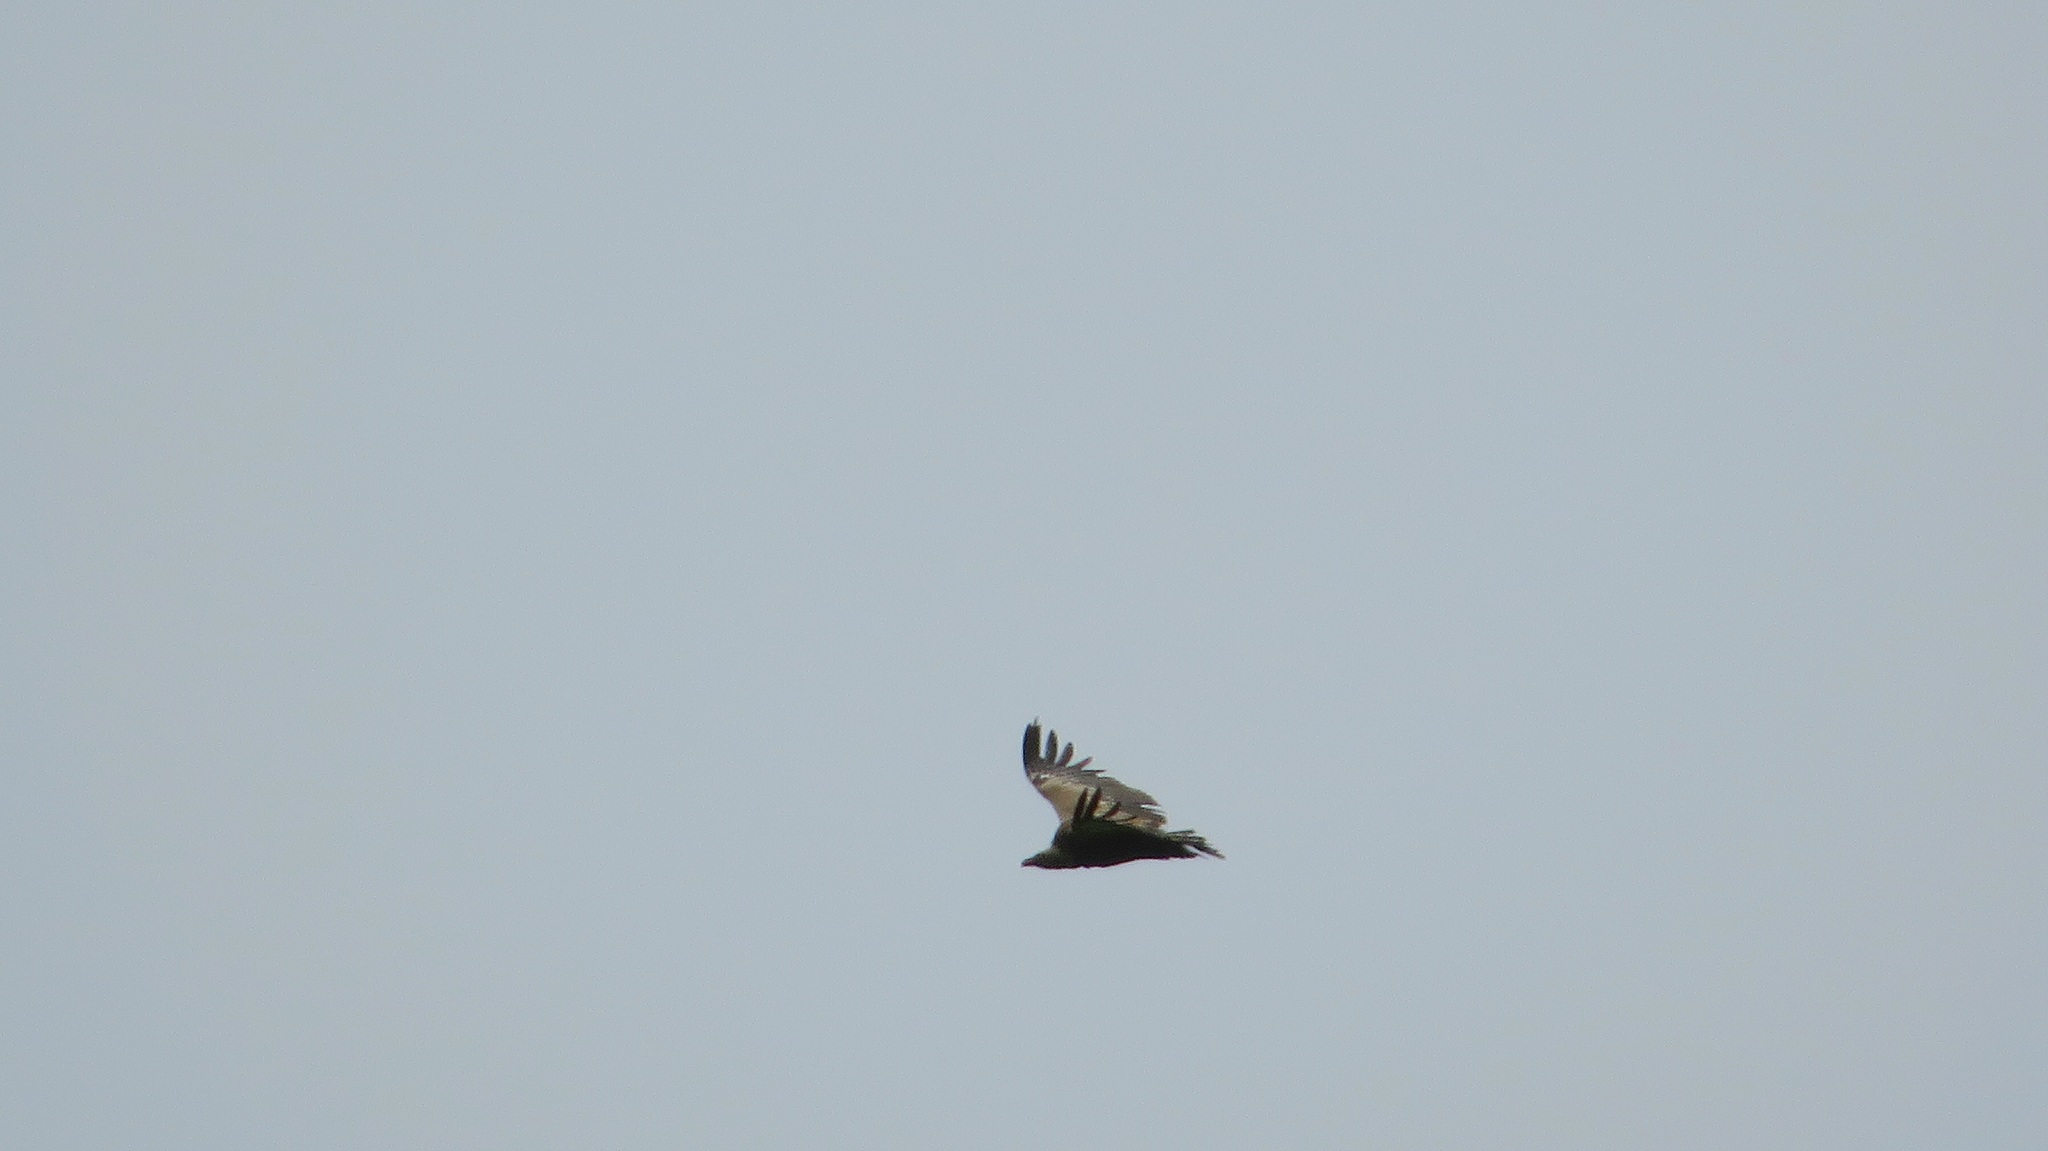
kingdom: Animalia
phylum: Chordata
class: Aves
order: Accipitriformes
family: Accipitridae
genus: Gyps
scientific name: Gyps fulvus
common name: Griffon vulture
